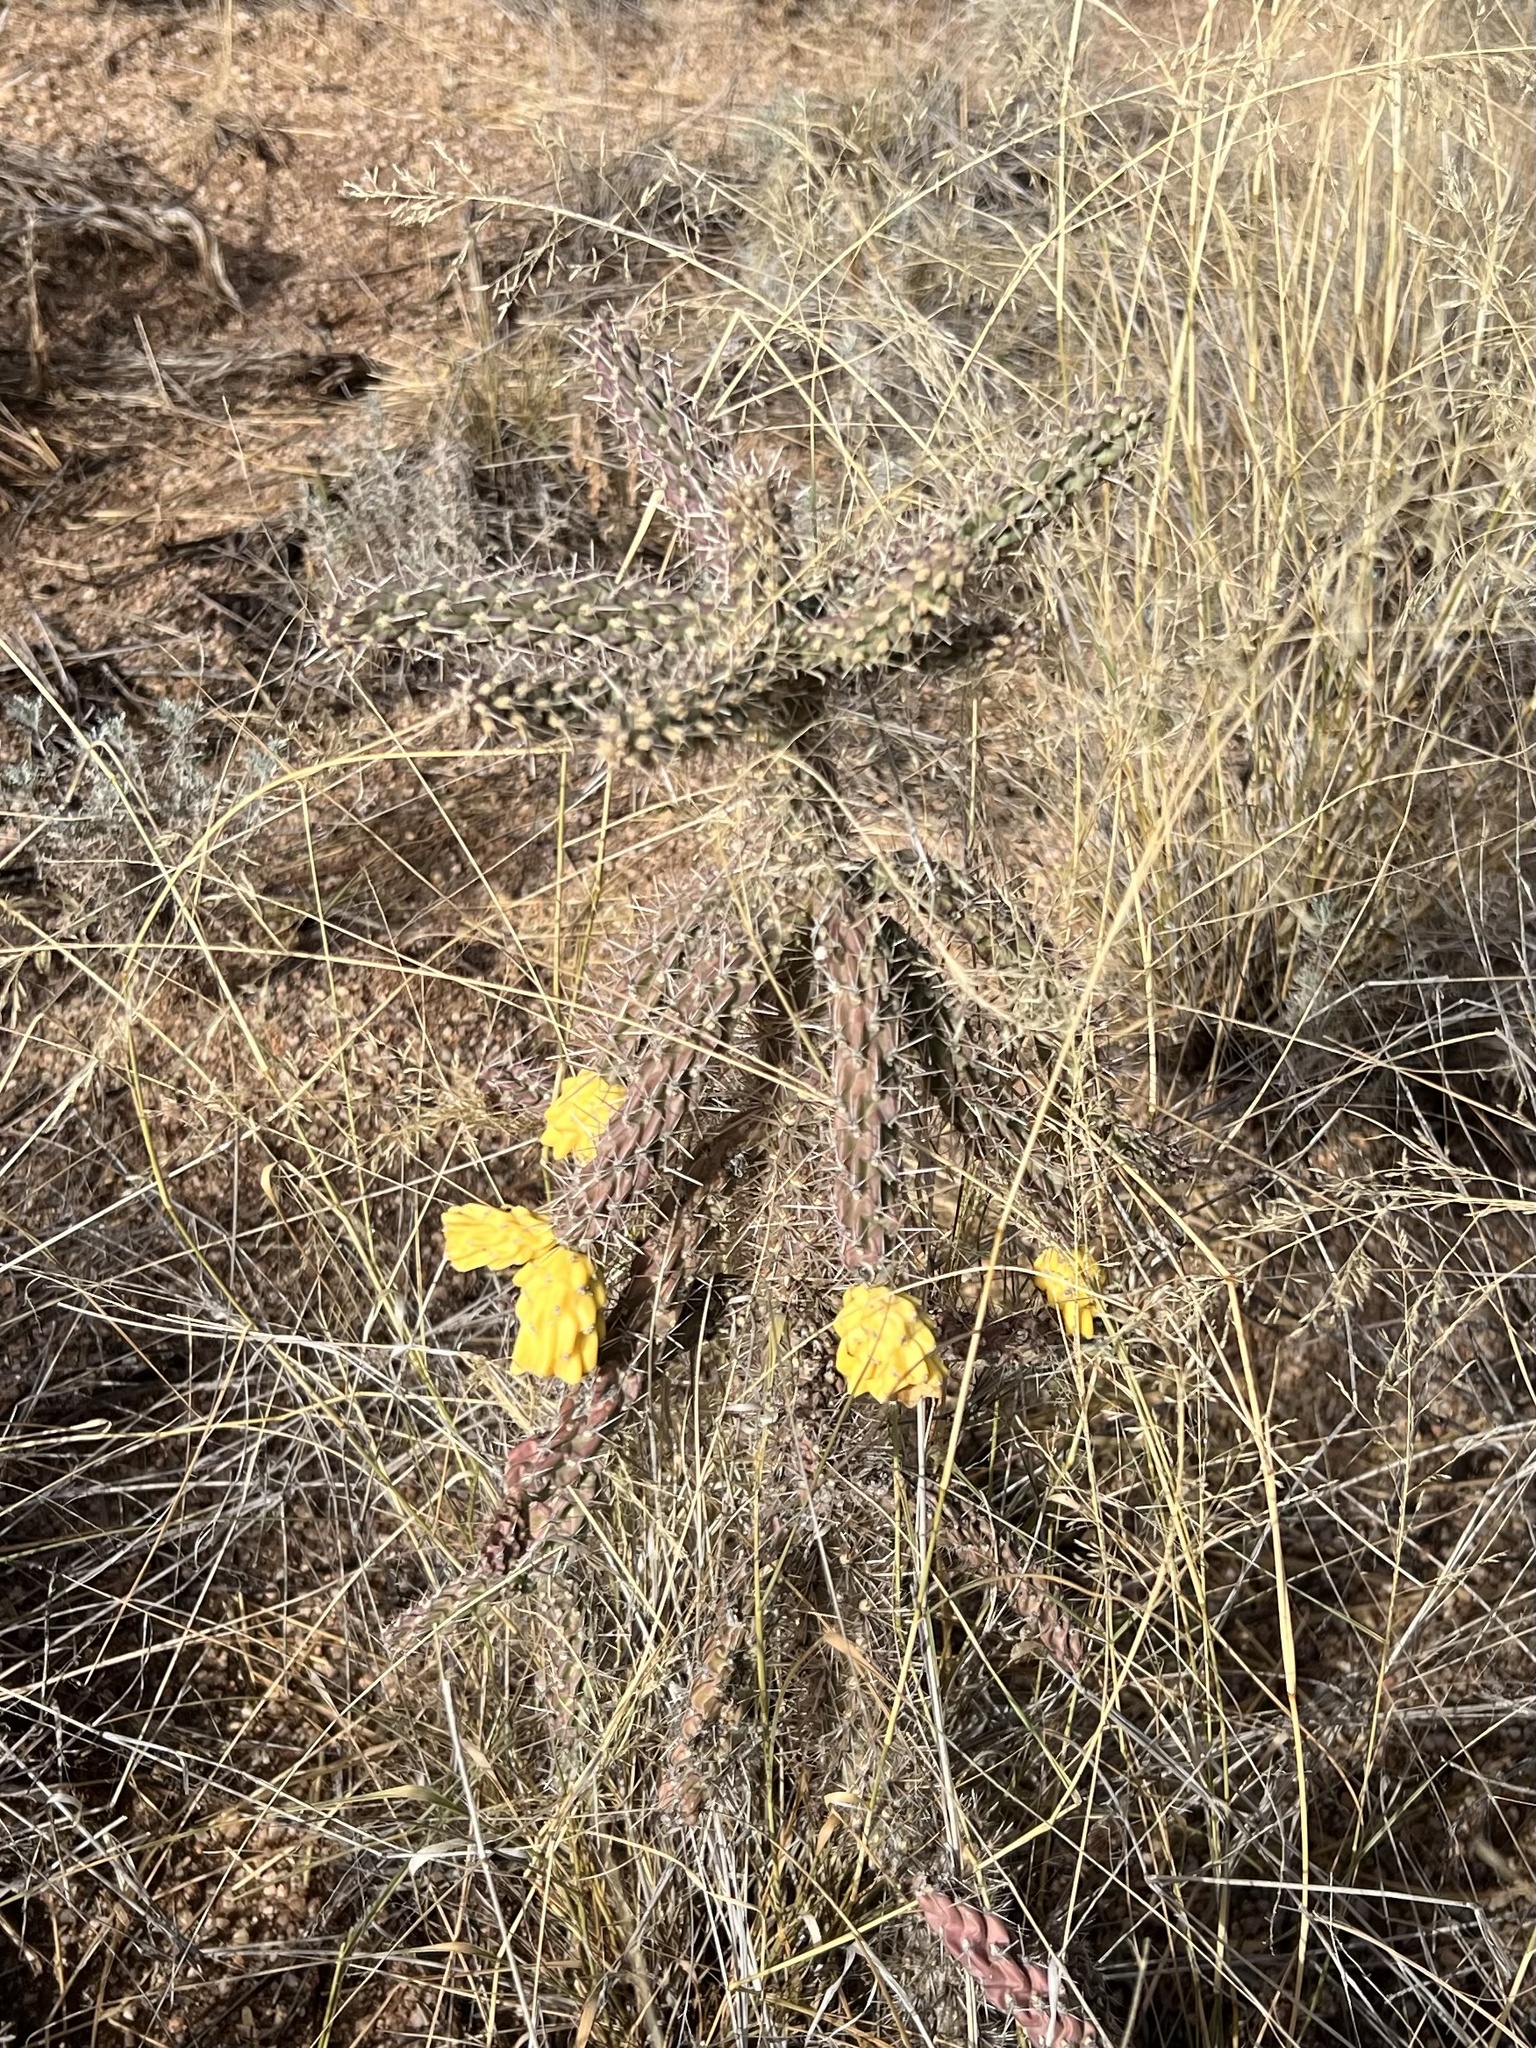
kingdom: Plantae
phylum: Tracheophyta
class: Magnoliopsida
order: Caryophyllales
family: Cactaceae
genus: Cylindropuntia
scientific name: Cylindropuntia imbricata
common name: Candelabrum cactus
